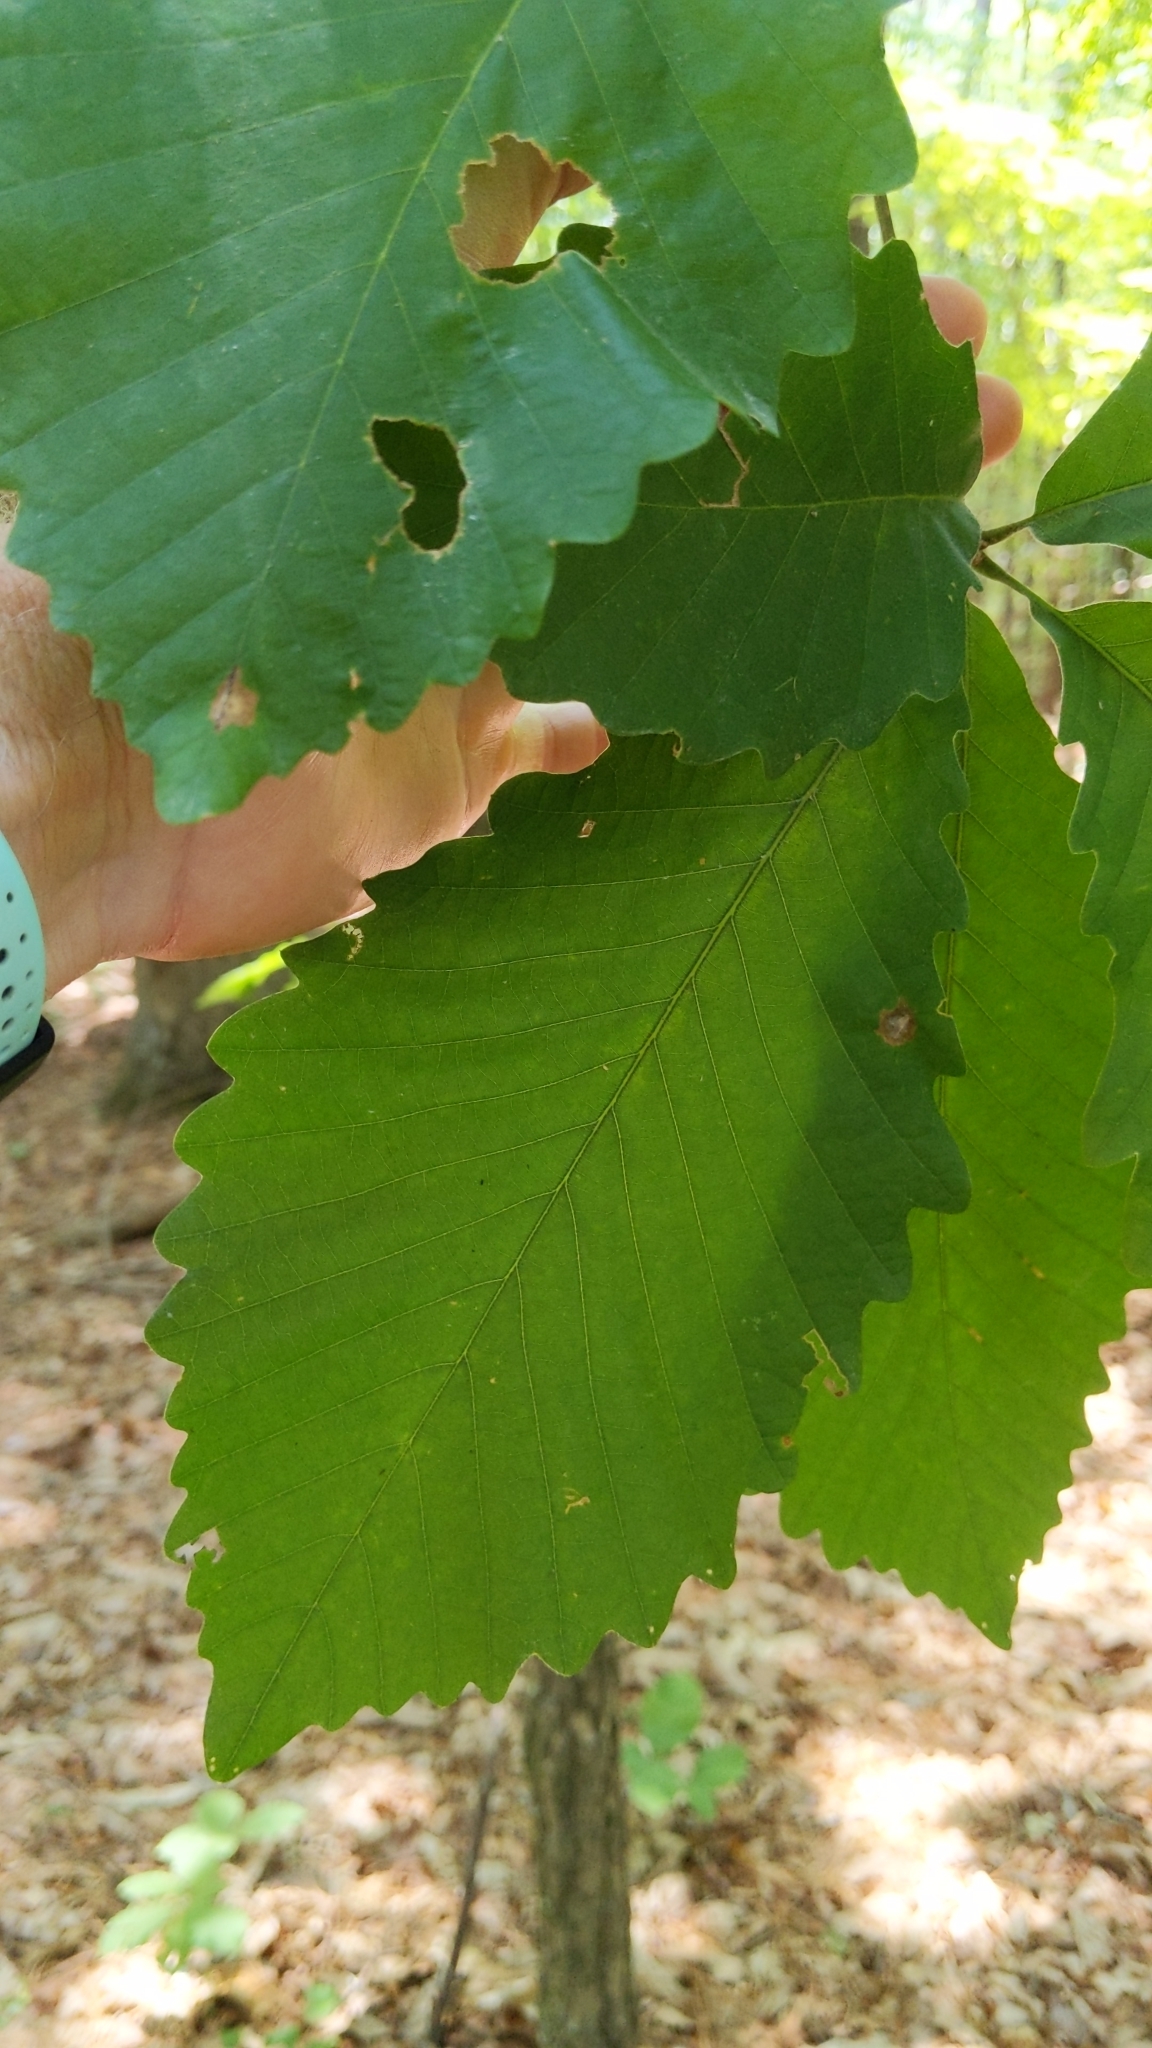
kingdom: Plantae
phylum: Tracheophyta
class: Magnoliopsida
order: Fagales
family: Fagaceae
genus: Quercus
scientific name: Quercus montana
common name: Chestnut oak
